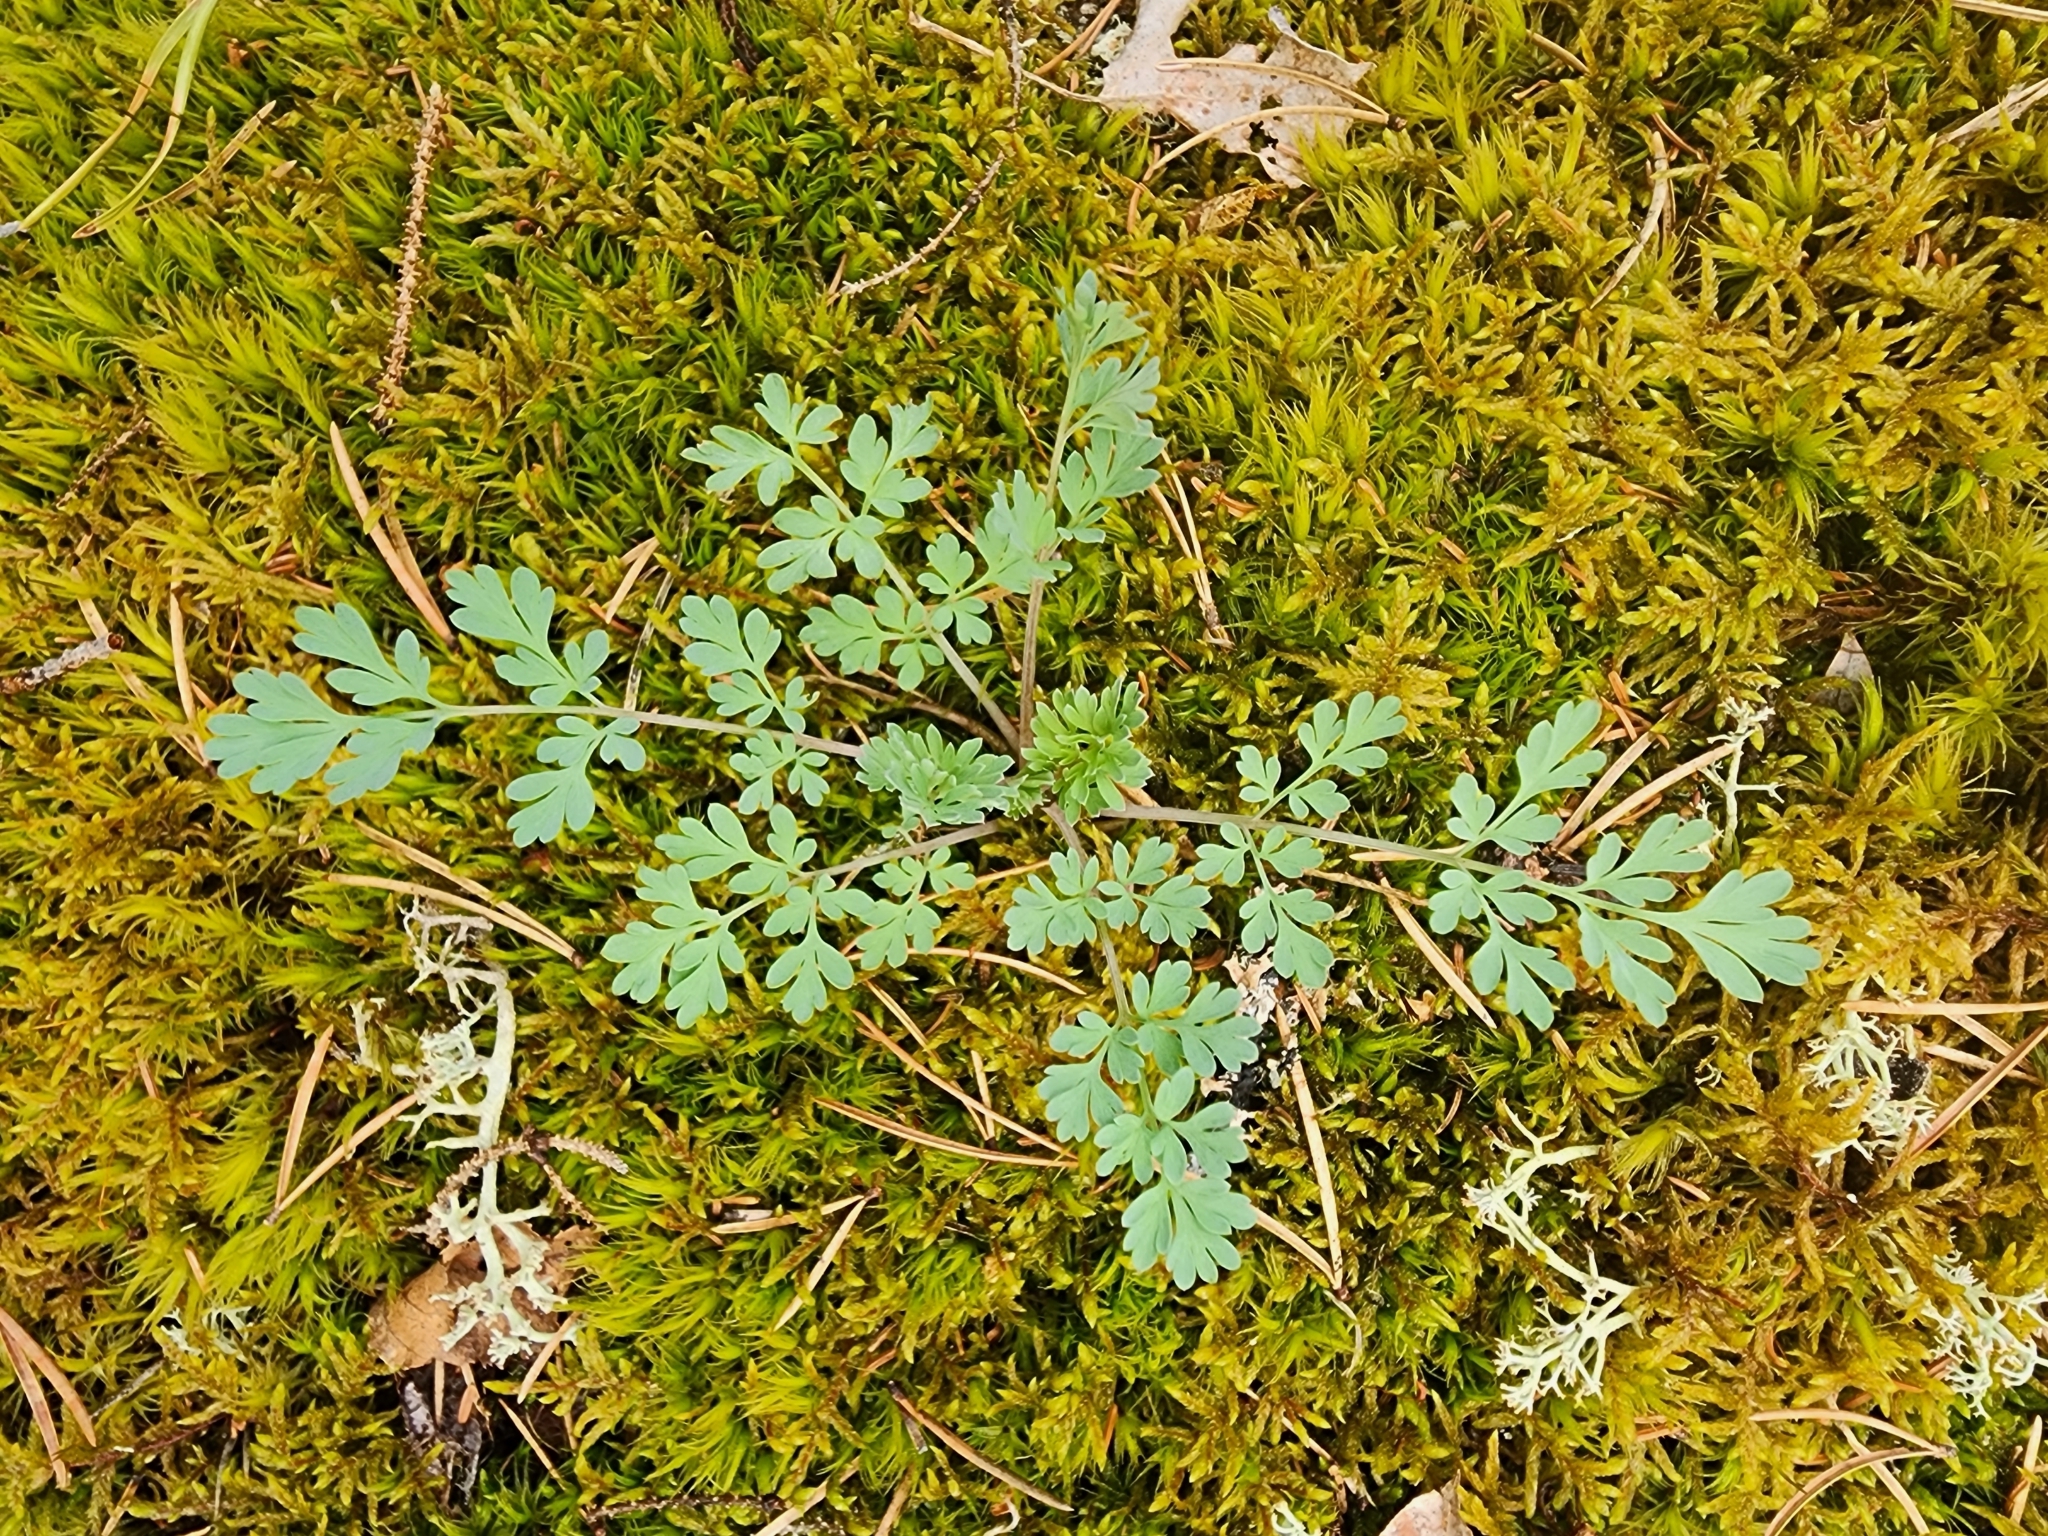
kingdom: Plantae
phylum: Tracheophyta
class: Magnoliopsida
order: Ranunculales
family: Papaveraceae
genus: Capnoides
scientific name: Capnoides sempervirens
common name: Rock harlequin
